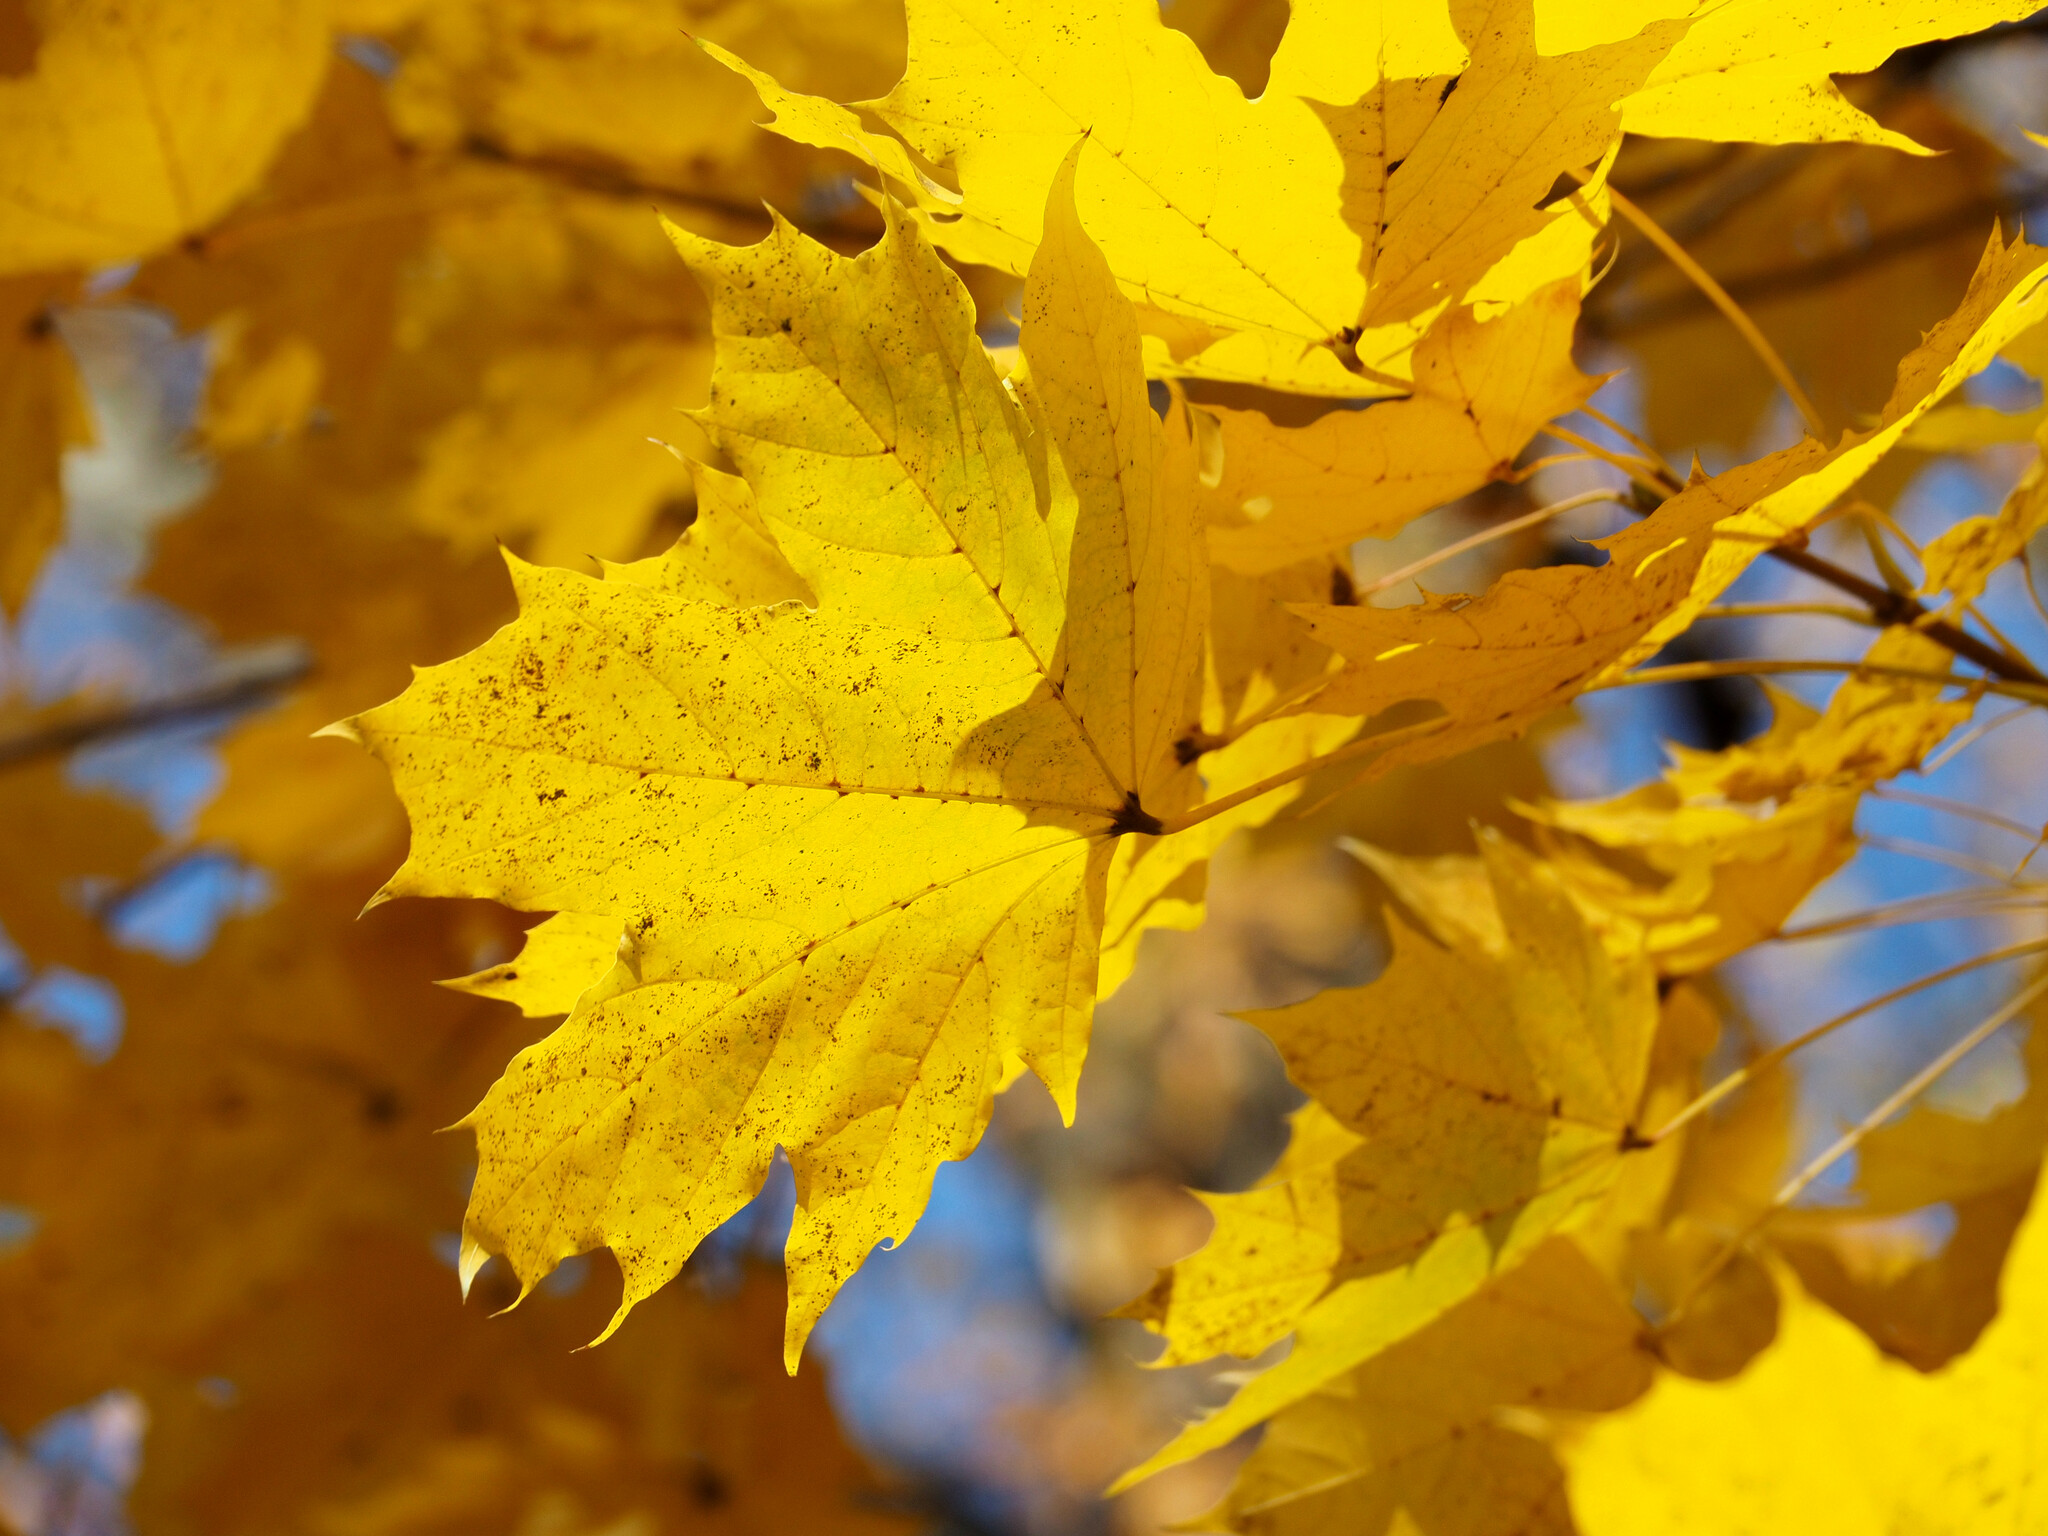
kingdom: Plantae
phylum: Tracheophyta
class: Magnoliopsida
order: Sapindales
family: Sapindaceae
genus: Acer
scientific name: Acer platanoides
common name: Norway maple
